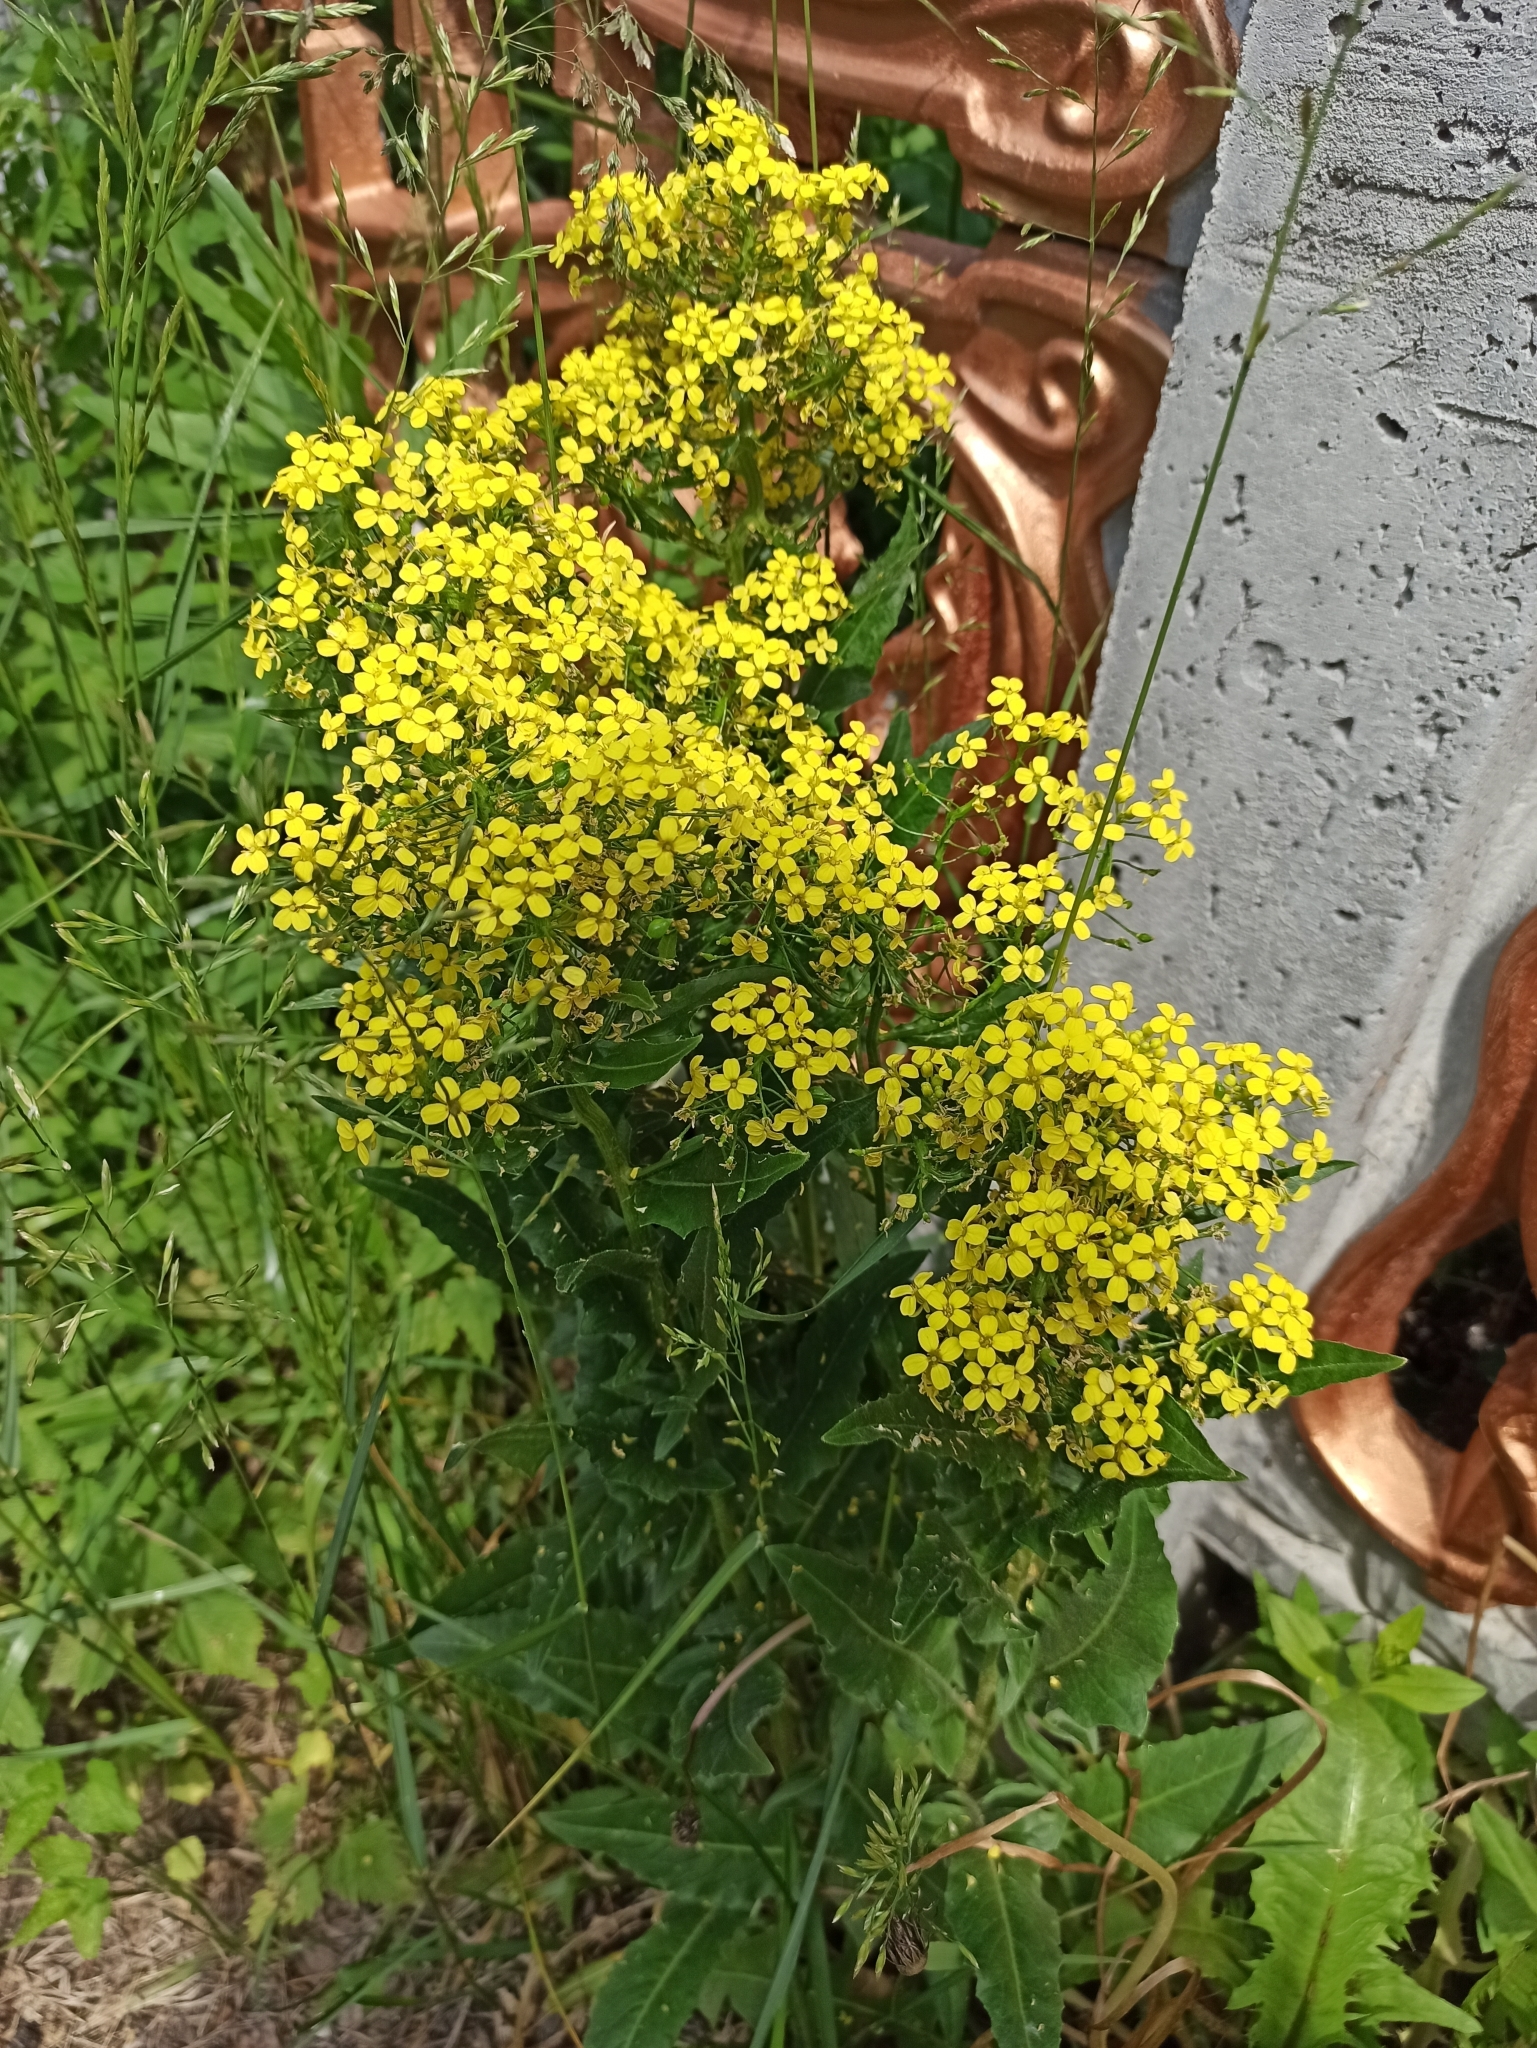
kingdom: Plantae
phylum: Tracheophyta
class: Magnoliopsida
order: Brassicales
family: Brassicaceae
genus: Bunias
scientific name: Bunias orientalis
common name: Warty-cabbage
